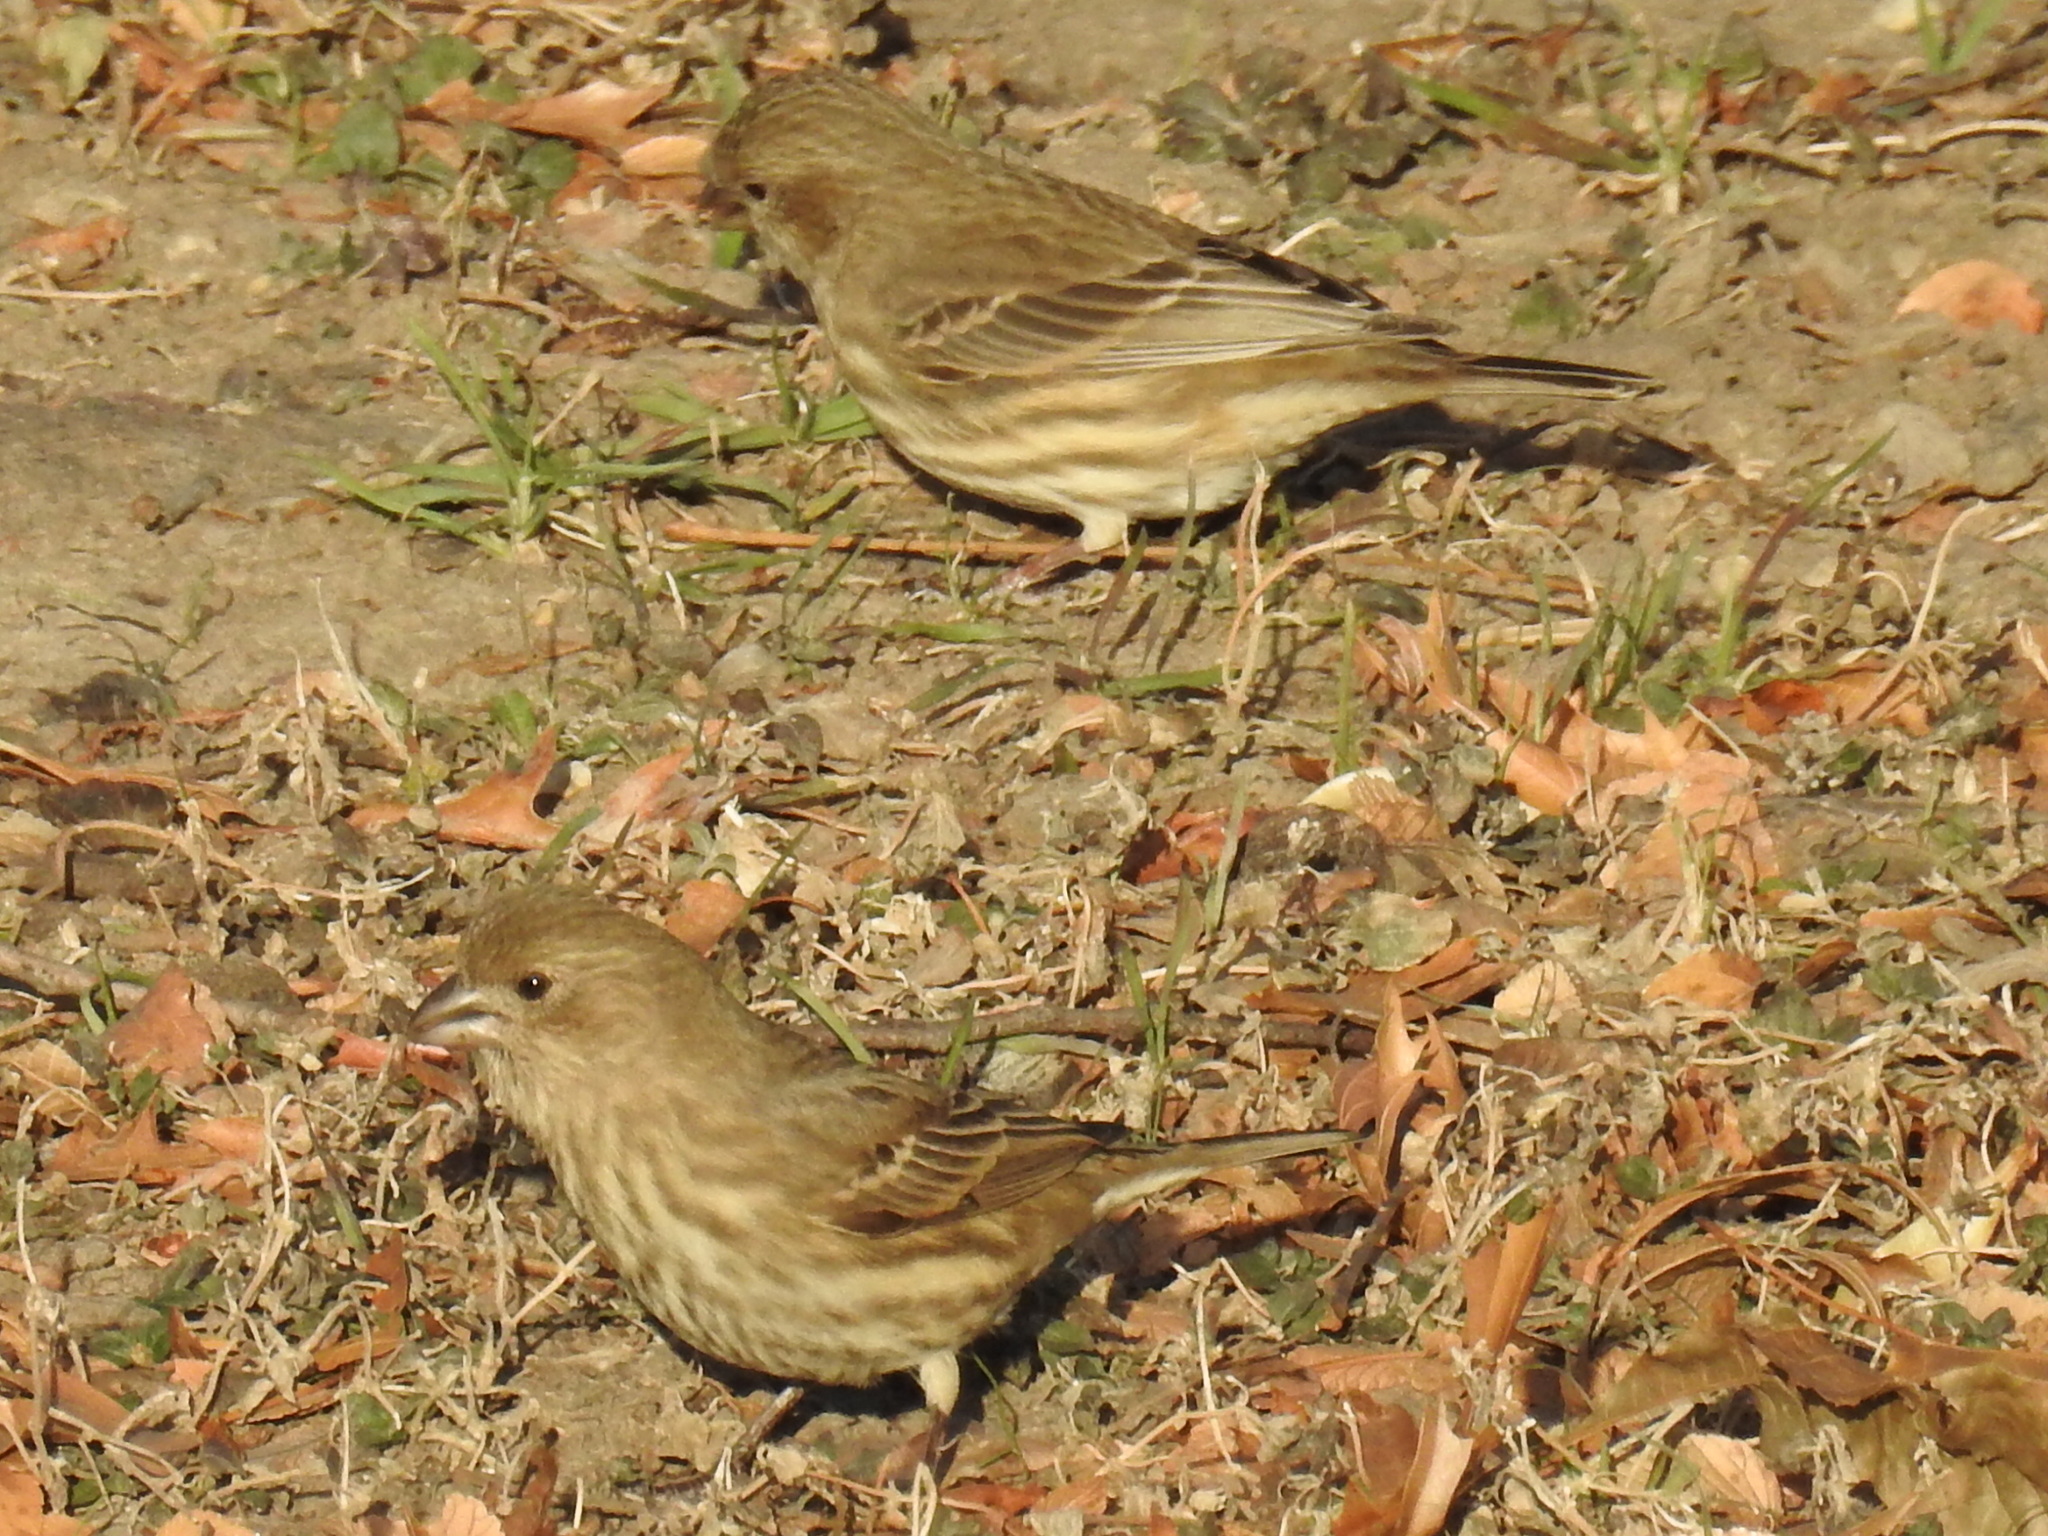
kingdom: Animalia
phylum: Chordata
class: Aves
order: Passeriformes
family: Fringillidae
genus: Haemorhous
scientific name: Haemorhous mexicanus
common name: House finch
